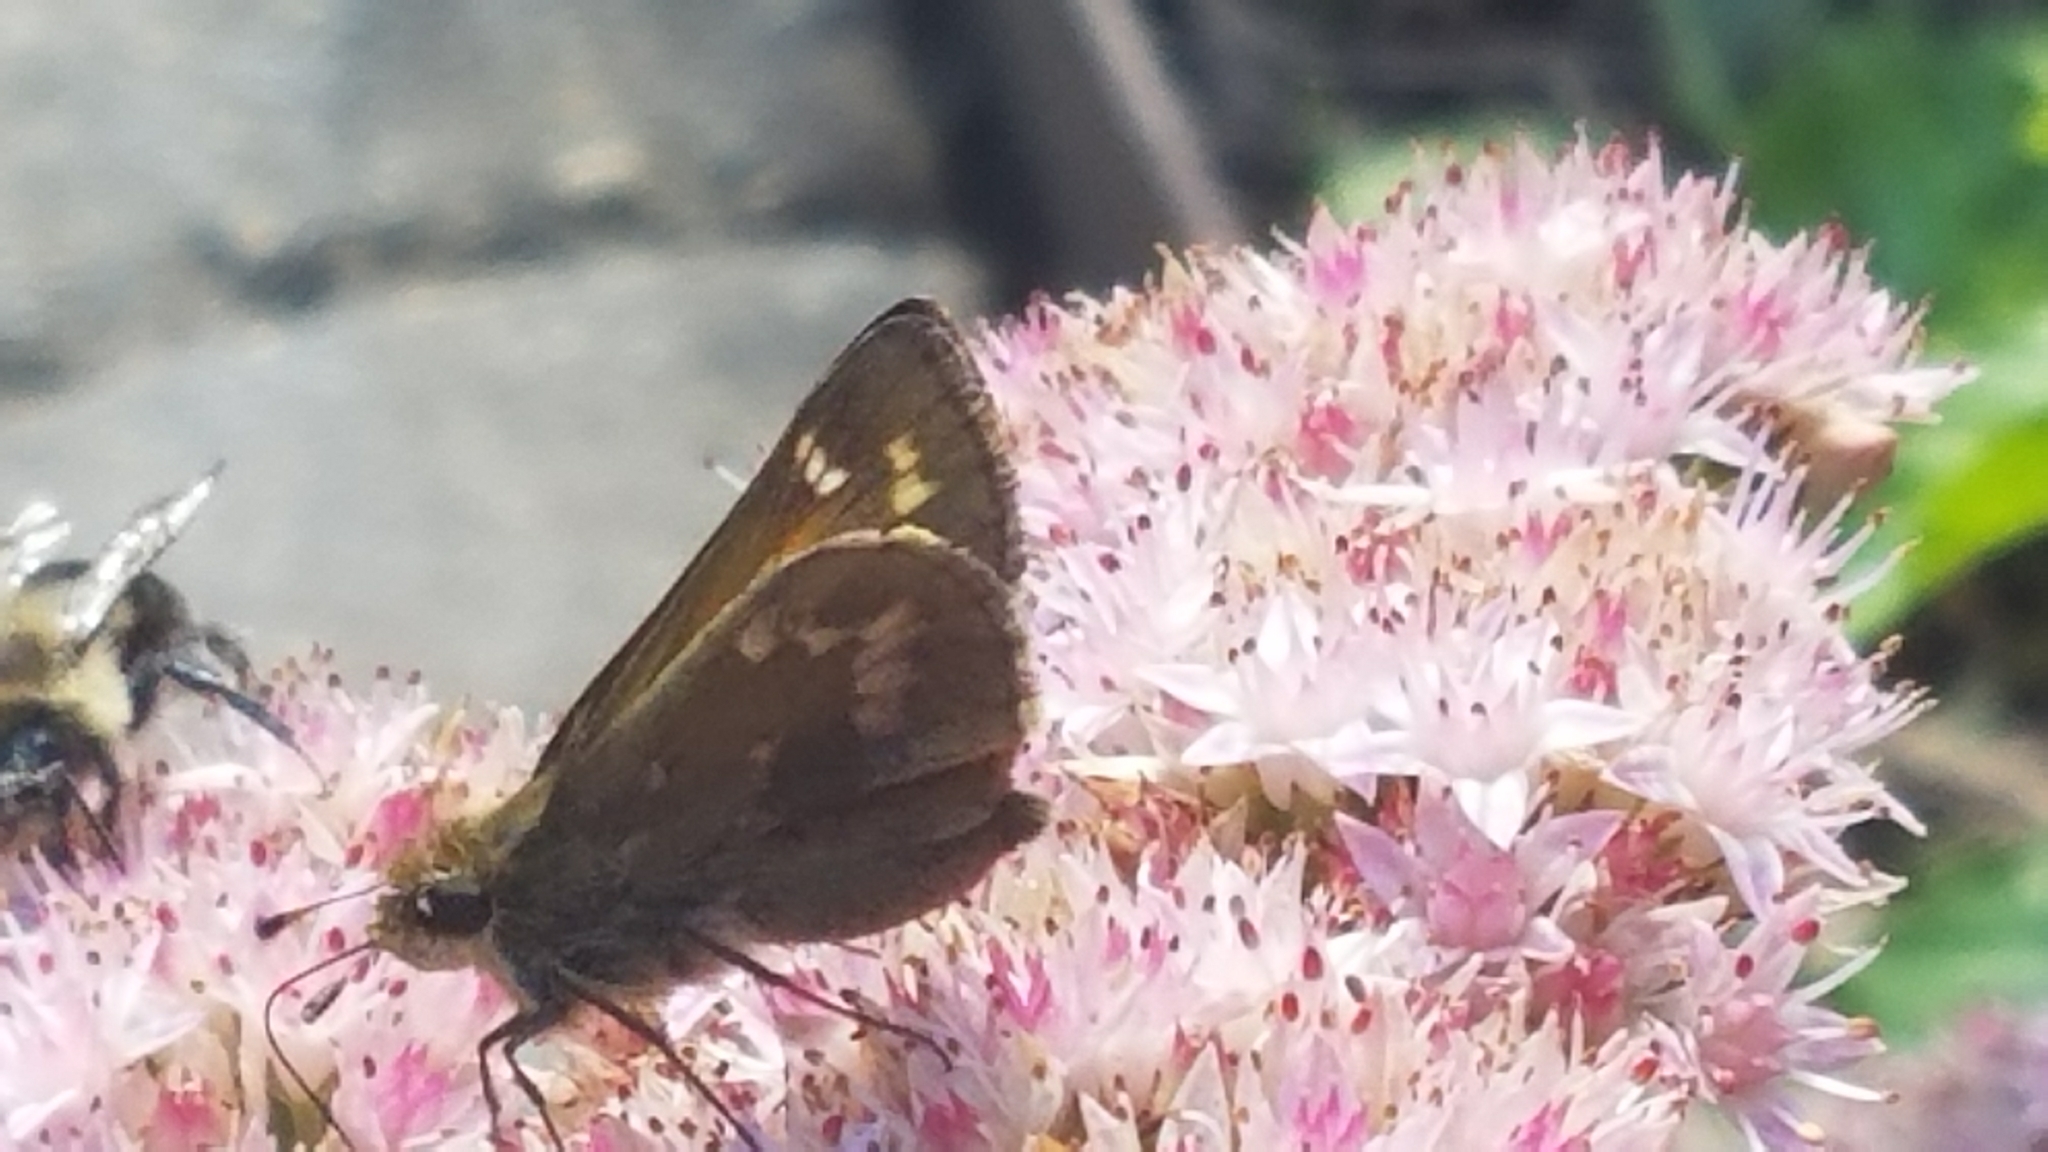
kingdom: Animalia
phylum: Arthropoda
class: Insecta
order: Lepidoptera
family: Hesperiidae
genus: Atalopedes
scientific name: Atalopedes
